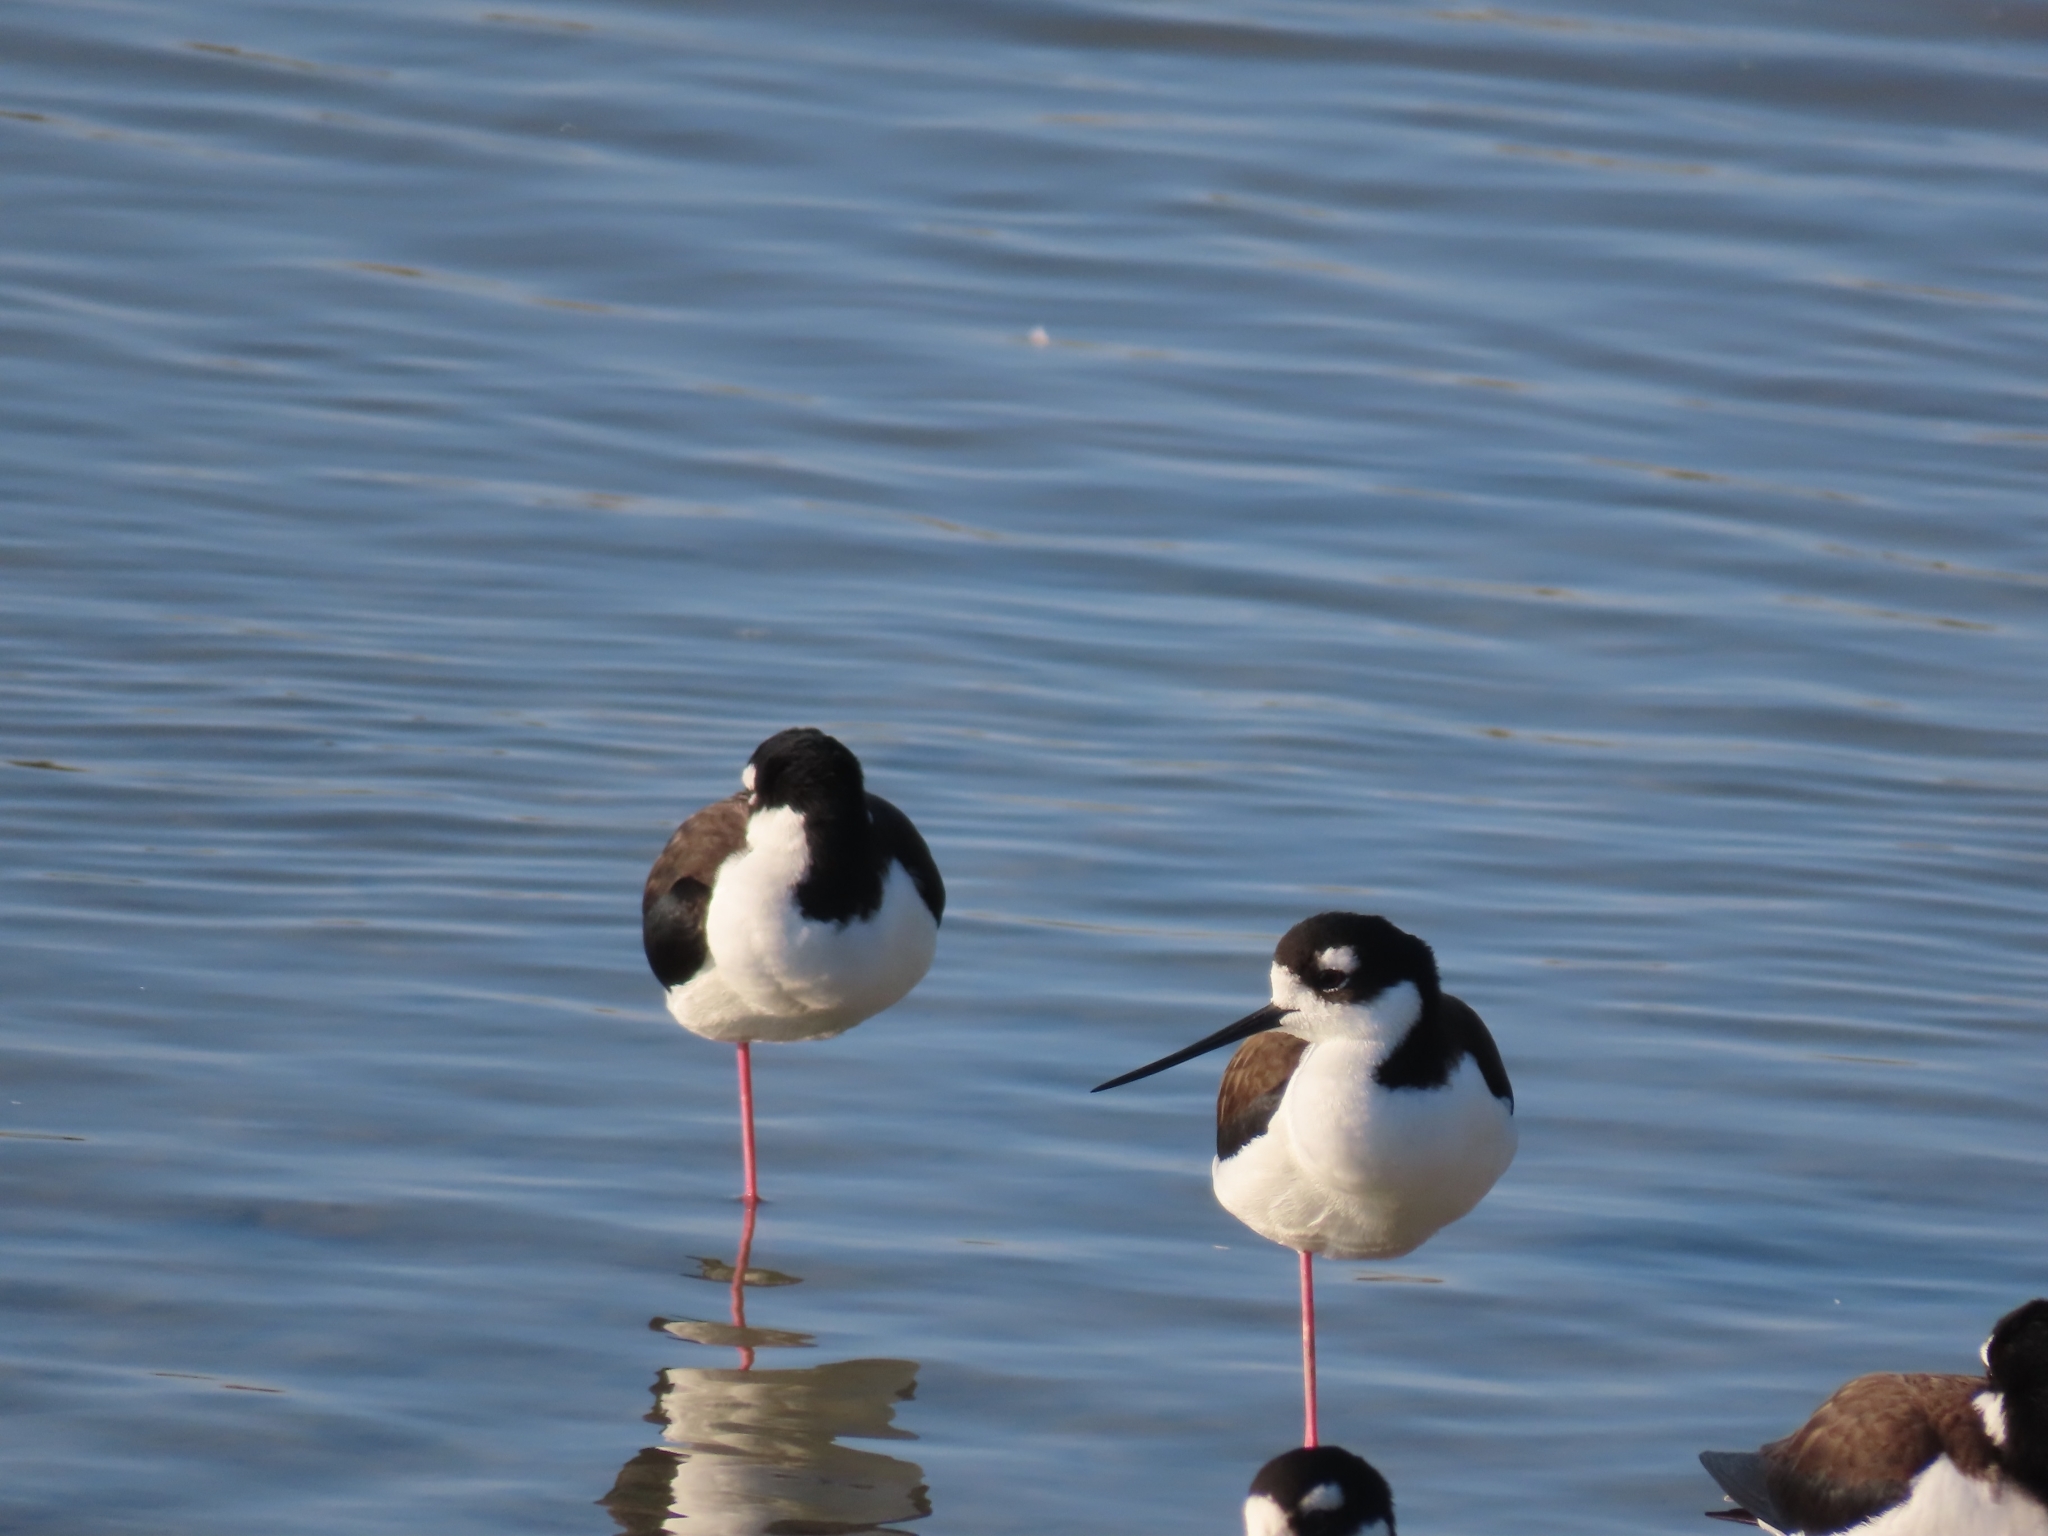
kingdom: Animalia
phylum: Chordata
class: Aves
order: Charadriiformes
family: Recurvirostridae
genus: Himantopus
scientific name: Himantopus mexicanus
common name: Black-necked stilt
